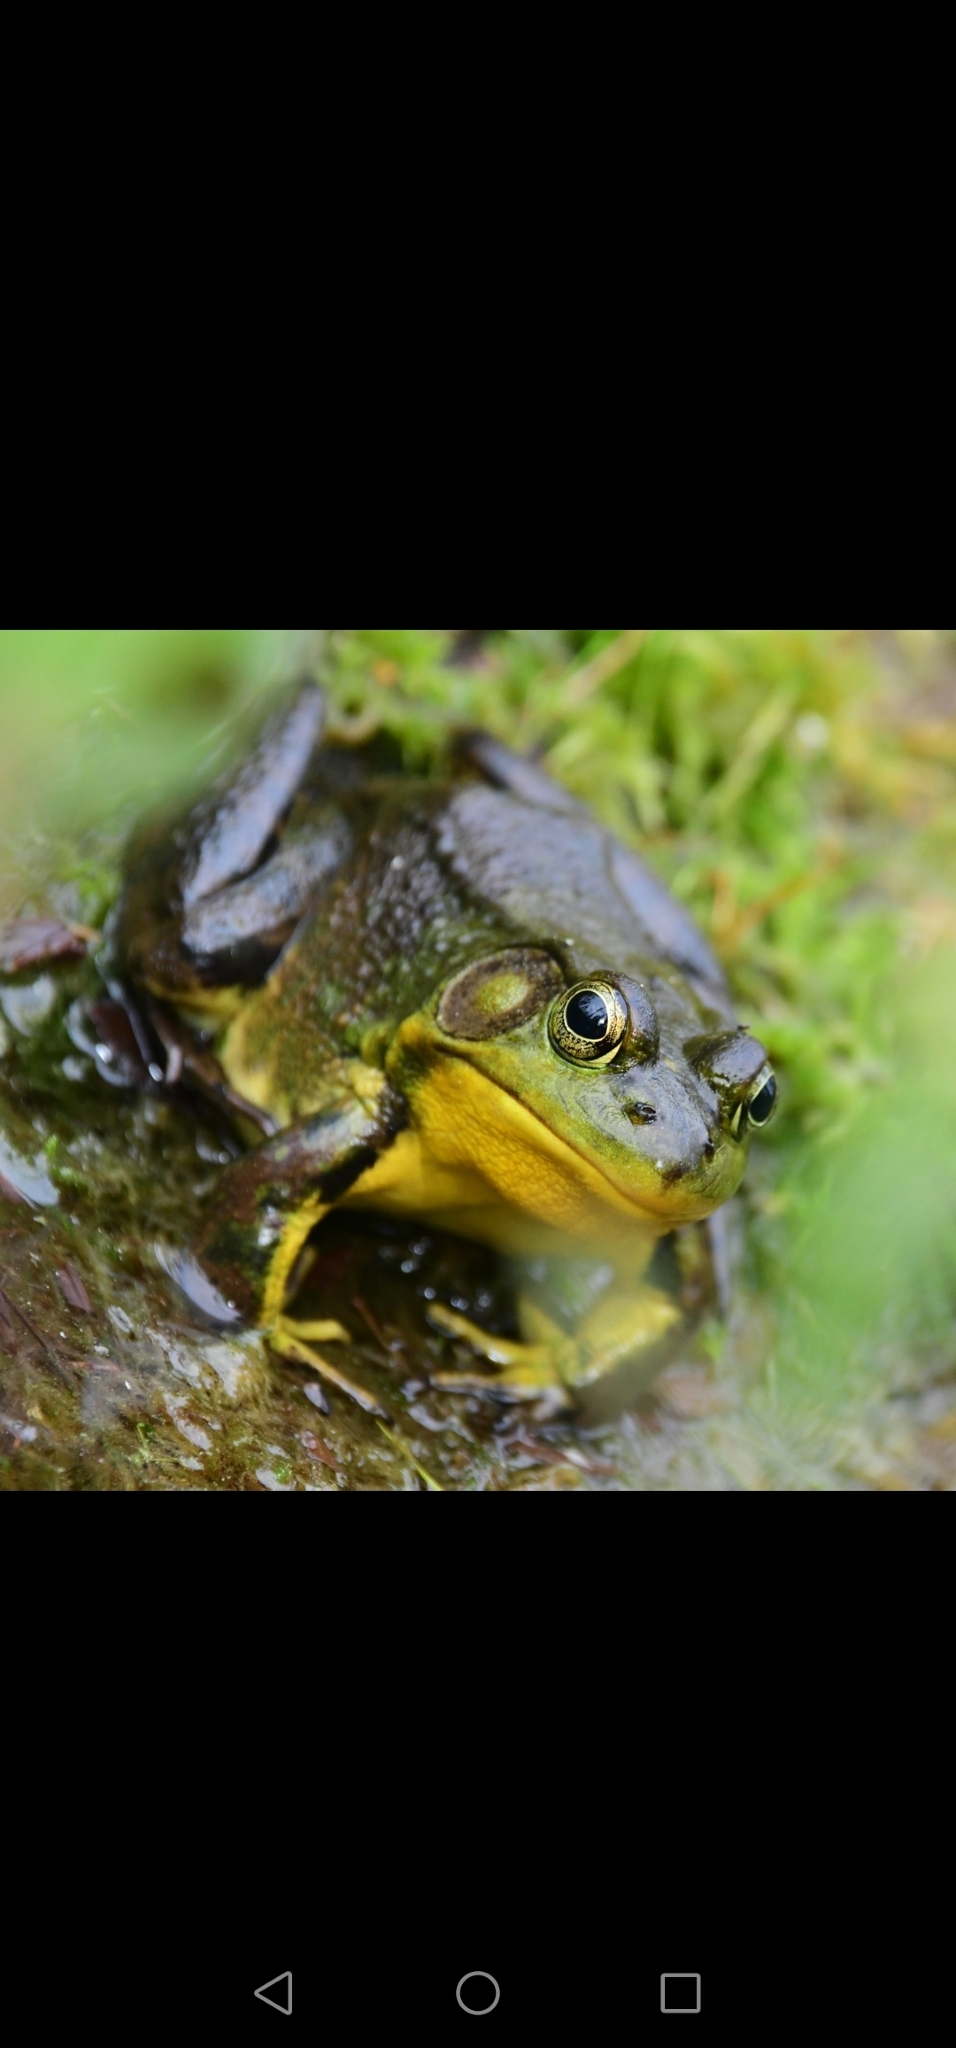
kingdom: Animalia
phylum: Chordata
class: Amphibia
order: Anura
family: Ranidae
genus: Lithobates
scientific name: Lithobates clamitans
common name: Green frog
